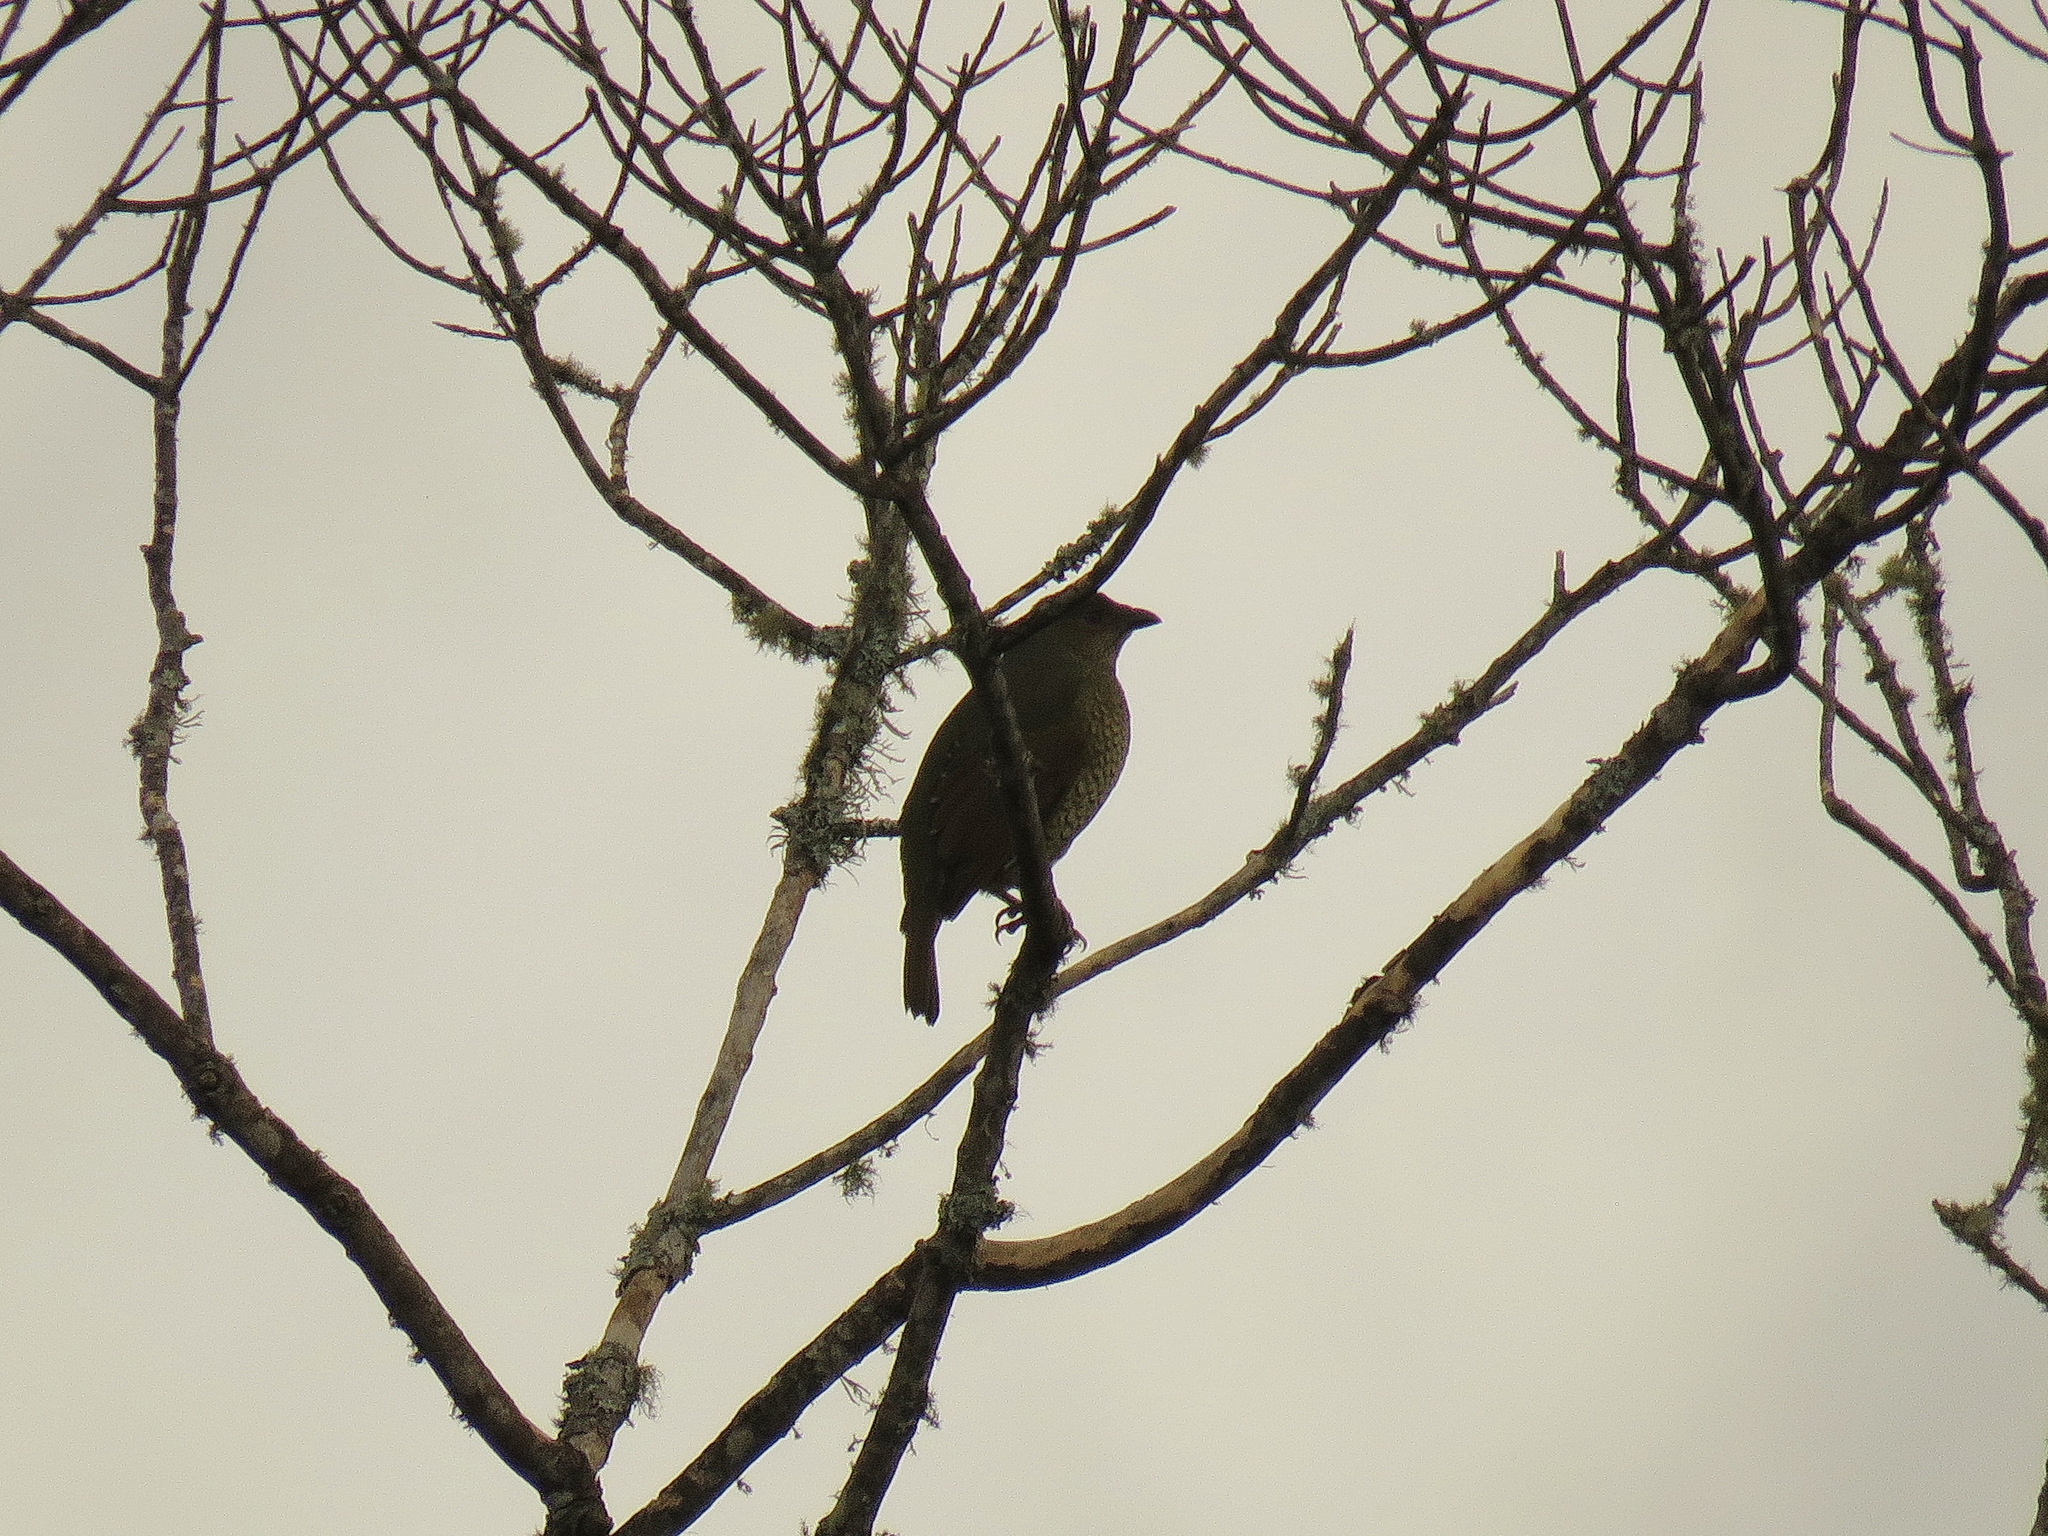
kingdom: Animalia
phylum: Chordata
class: Aves
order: Passeriformes
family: Ptilonorhynchidae
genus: Ptilonorhynchus
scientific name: Ptilonorhynchus violaceus
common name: Satin bowerbird
